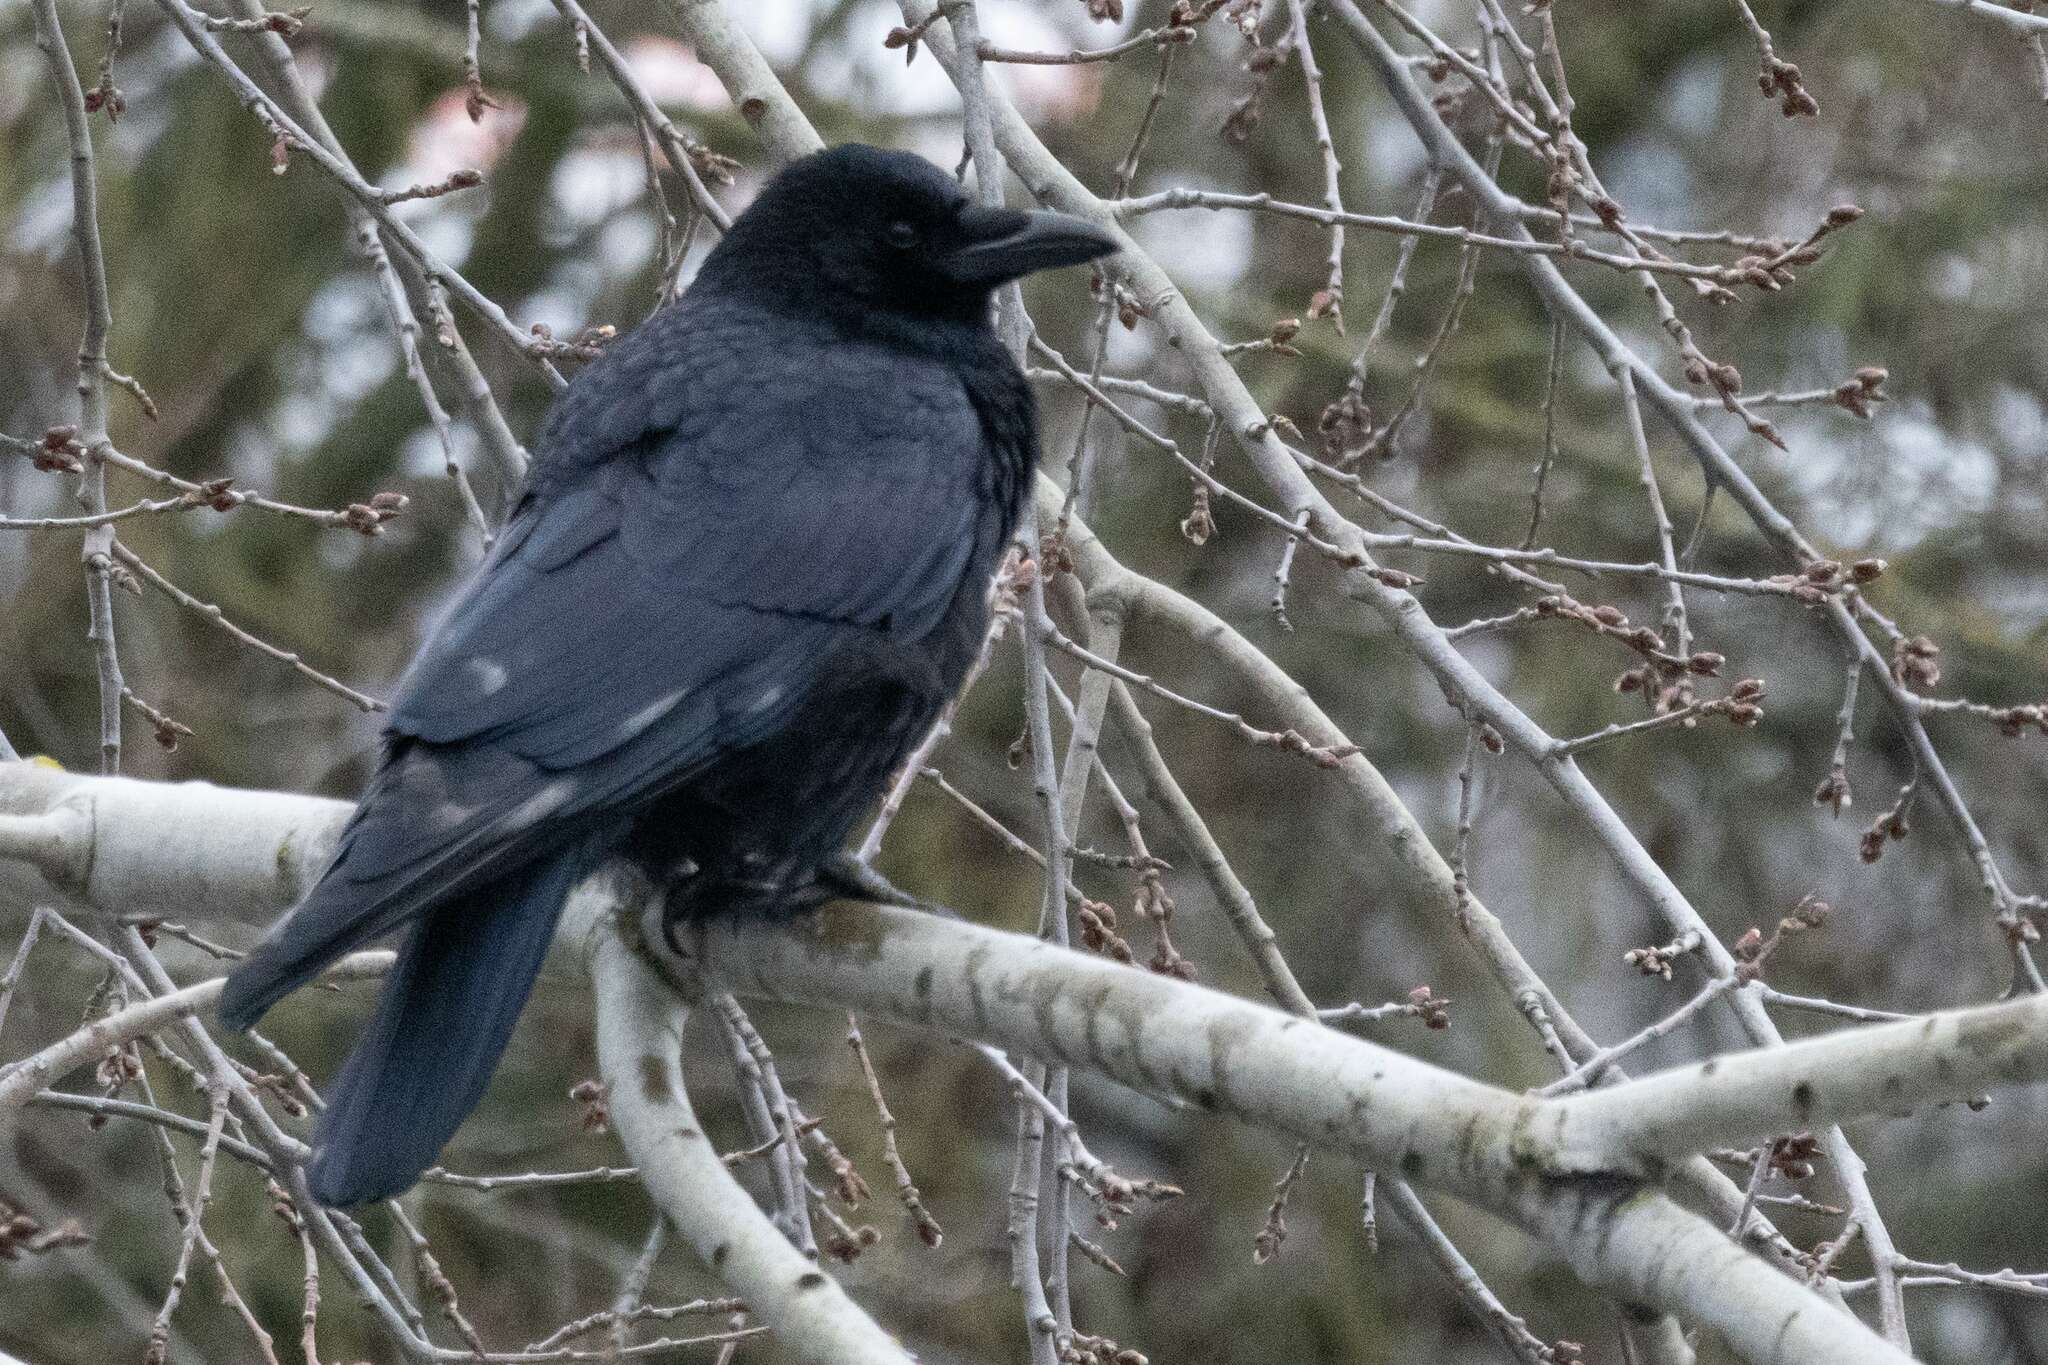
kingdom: Animalia
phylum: Chordata
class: Aves
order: Passeriformes
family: Corvidae
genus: Corvus
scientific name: Corvus corone
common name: Carrion crow
